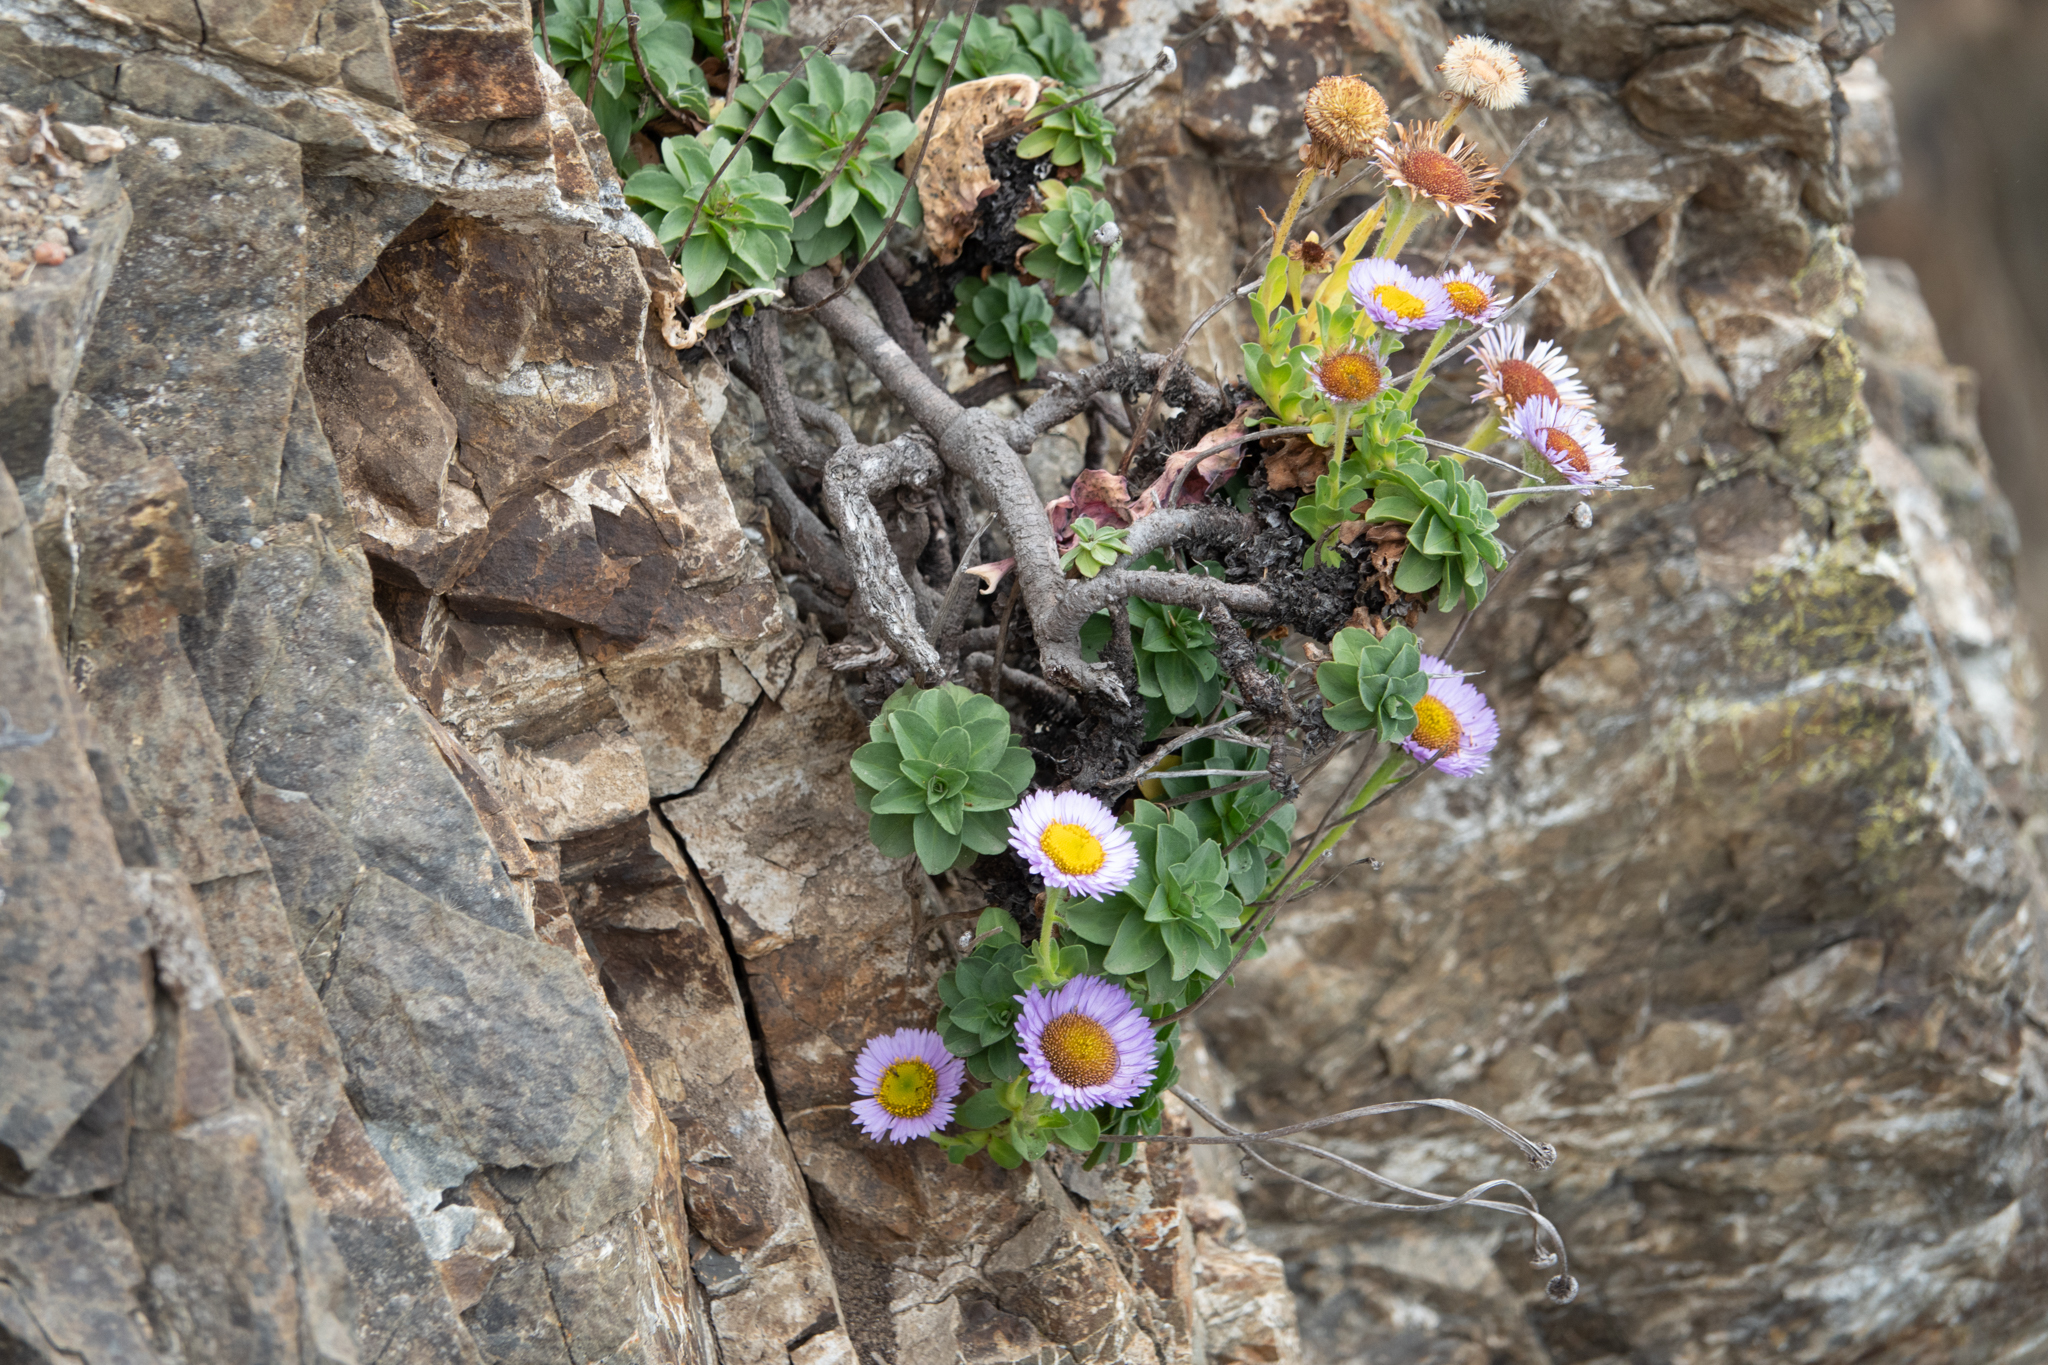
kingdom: Plantae
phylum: Tracheophyta
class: Magnoliopsida
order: Asterales
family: Asteraceae
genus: Erigeron
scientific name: Erigeron glaucus
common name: Seaside daisy
